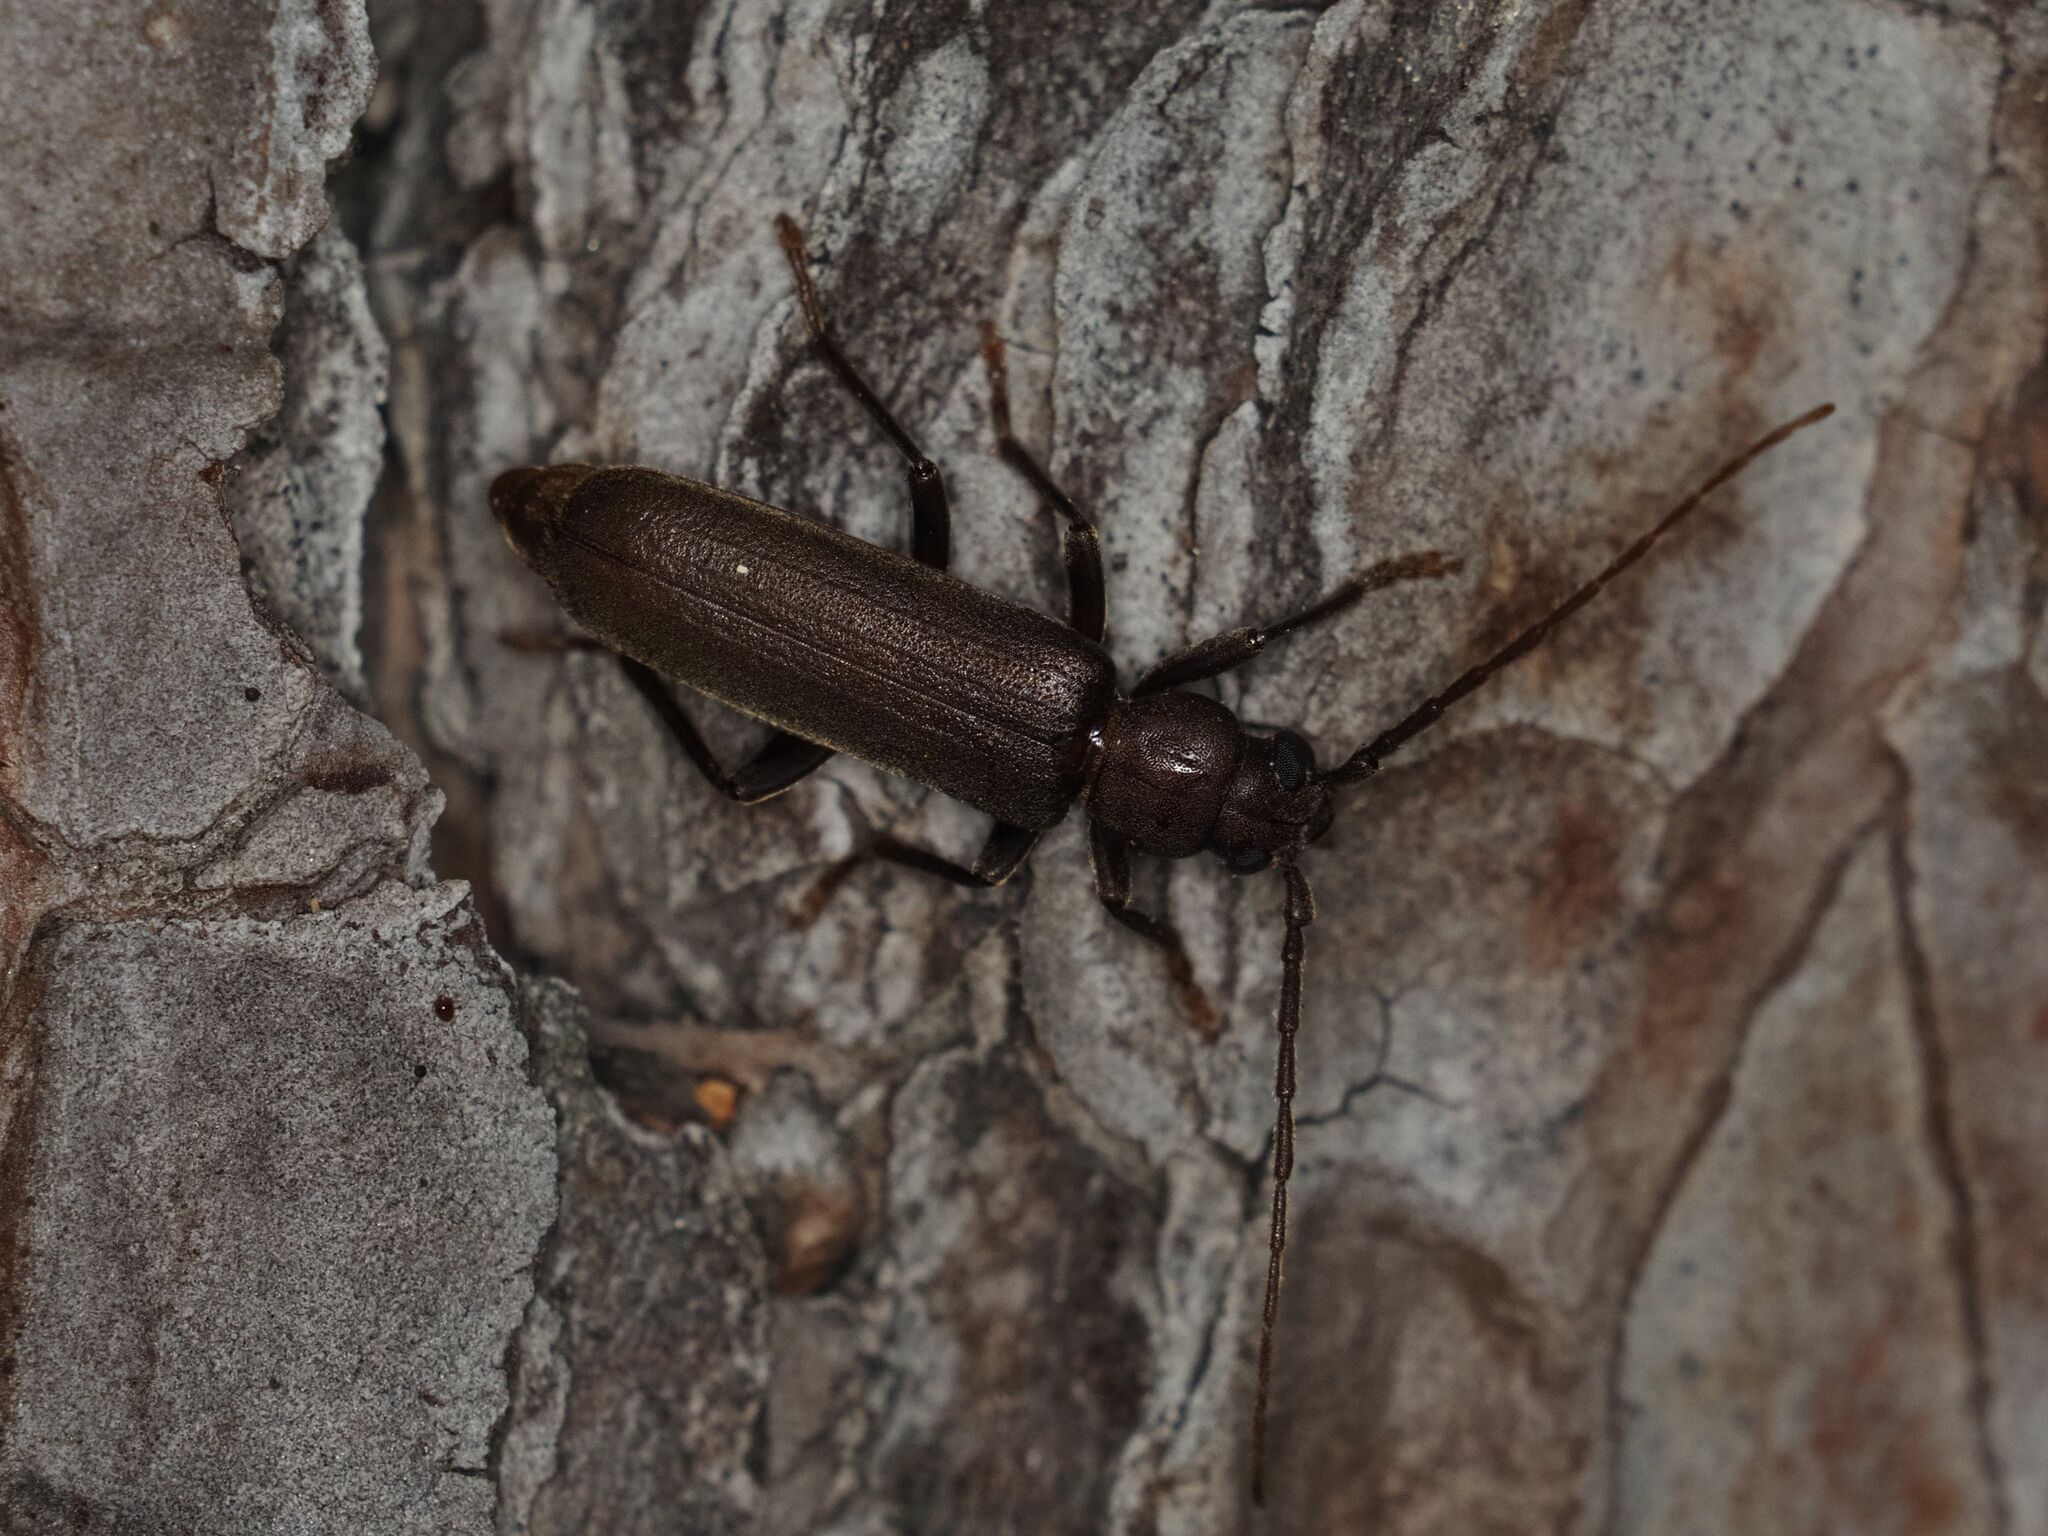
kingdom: Animalia
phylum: Arthropoda
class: Insecta
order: Coleoptera
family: Cerambycidae
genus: Arhopalus
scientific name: Arhopalus rusticus
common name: Rust pine borer
